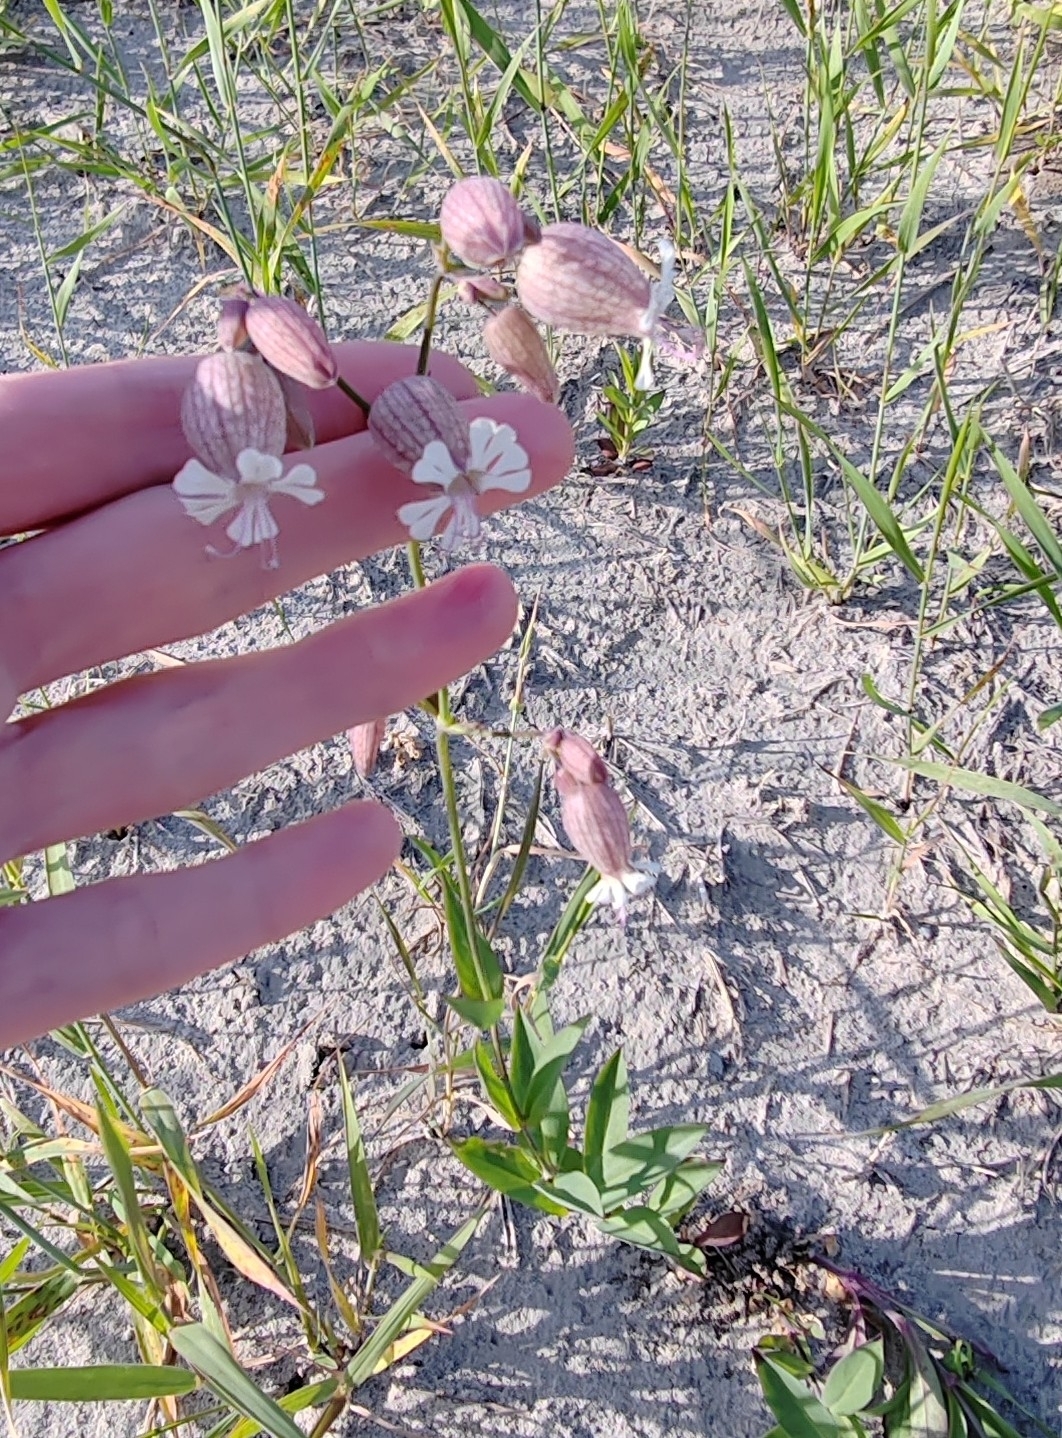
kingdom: Plantae
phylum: Tracheophyta
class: Magnoliopsida
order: Caryophyllales
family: Caryophyllaceae
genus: Silene
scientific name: Silene vulgaris
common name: Bladder campion
